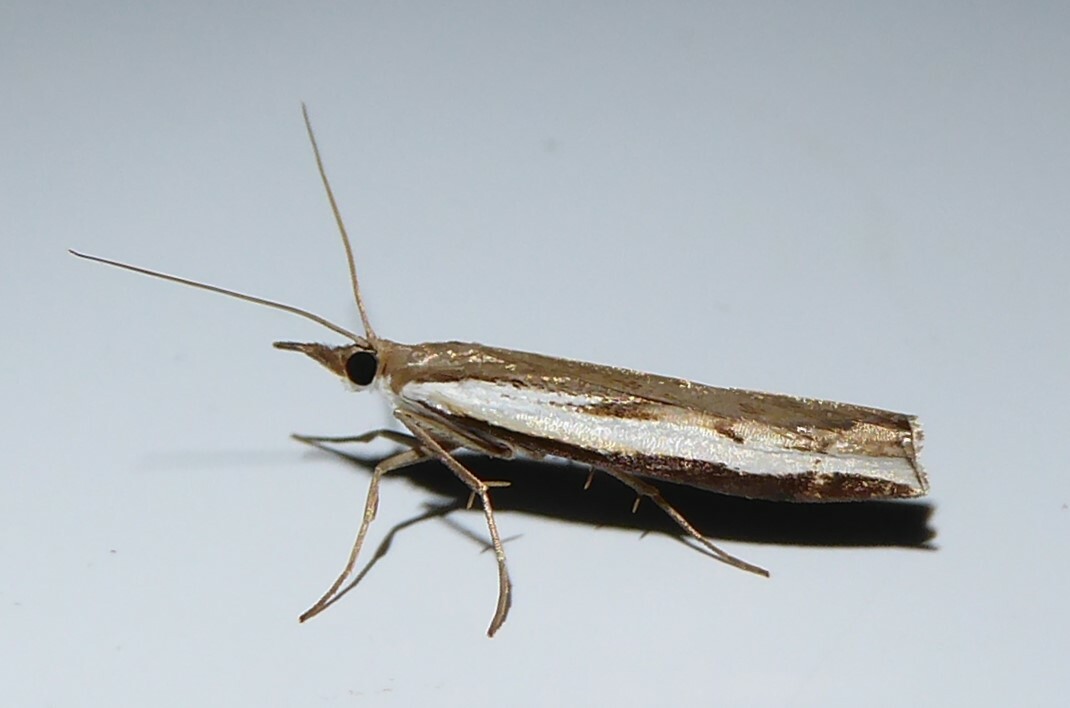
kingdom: Animalia
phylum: Arthropoda
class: Insecta
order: Lepidoptera
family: Crambidae
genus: Orocrambus
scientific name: Orocrambus flexuosellus
